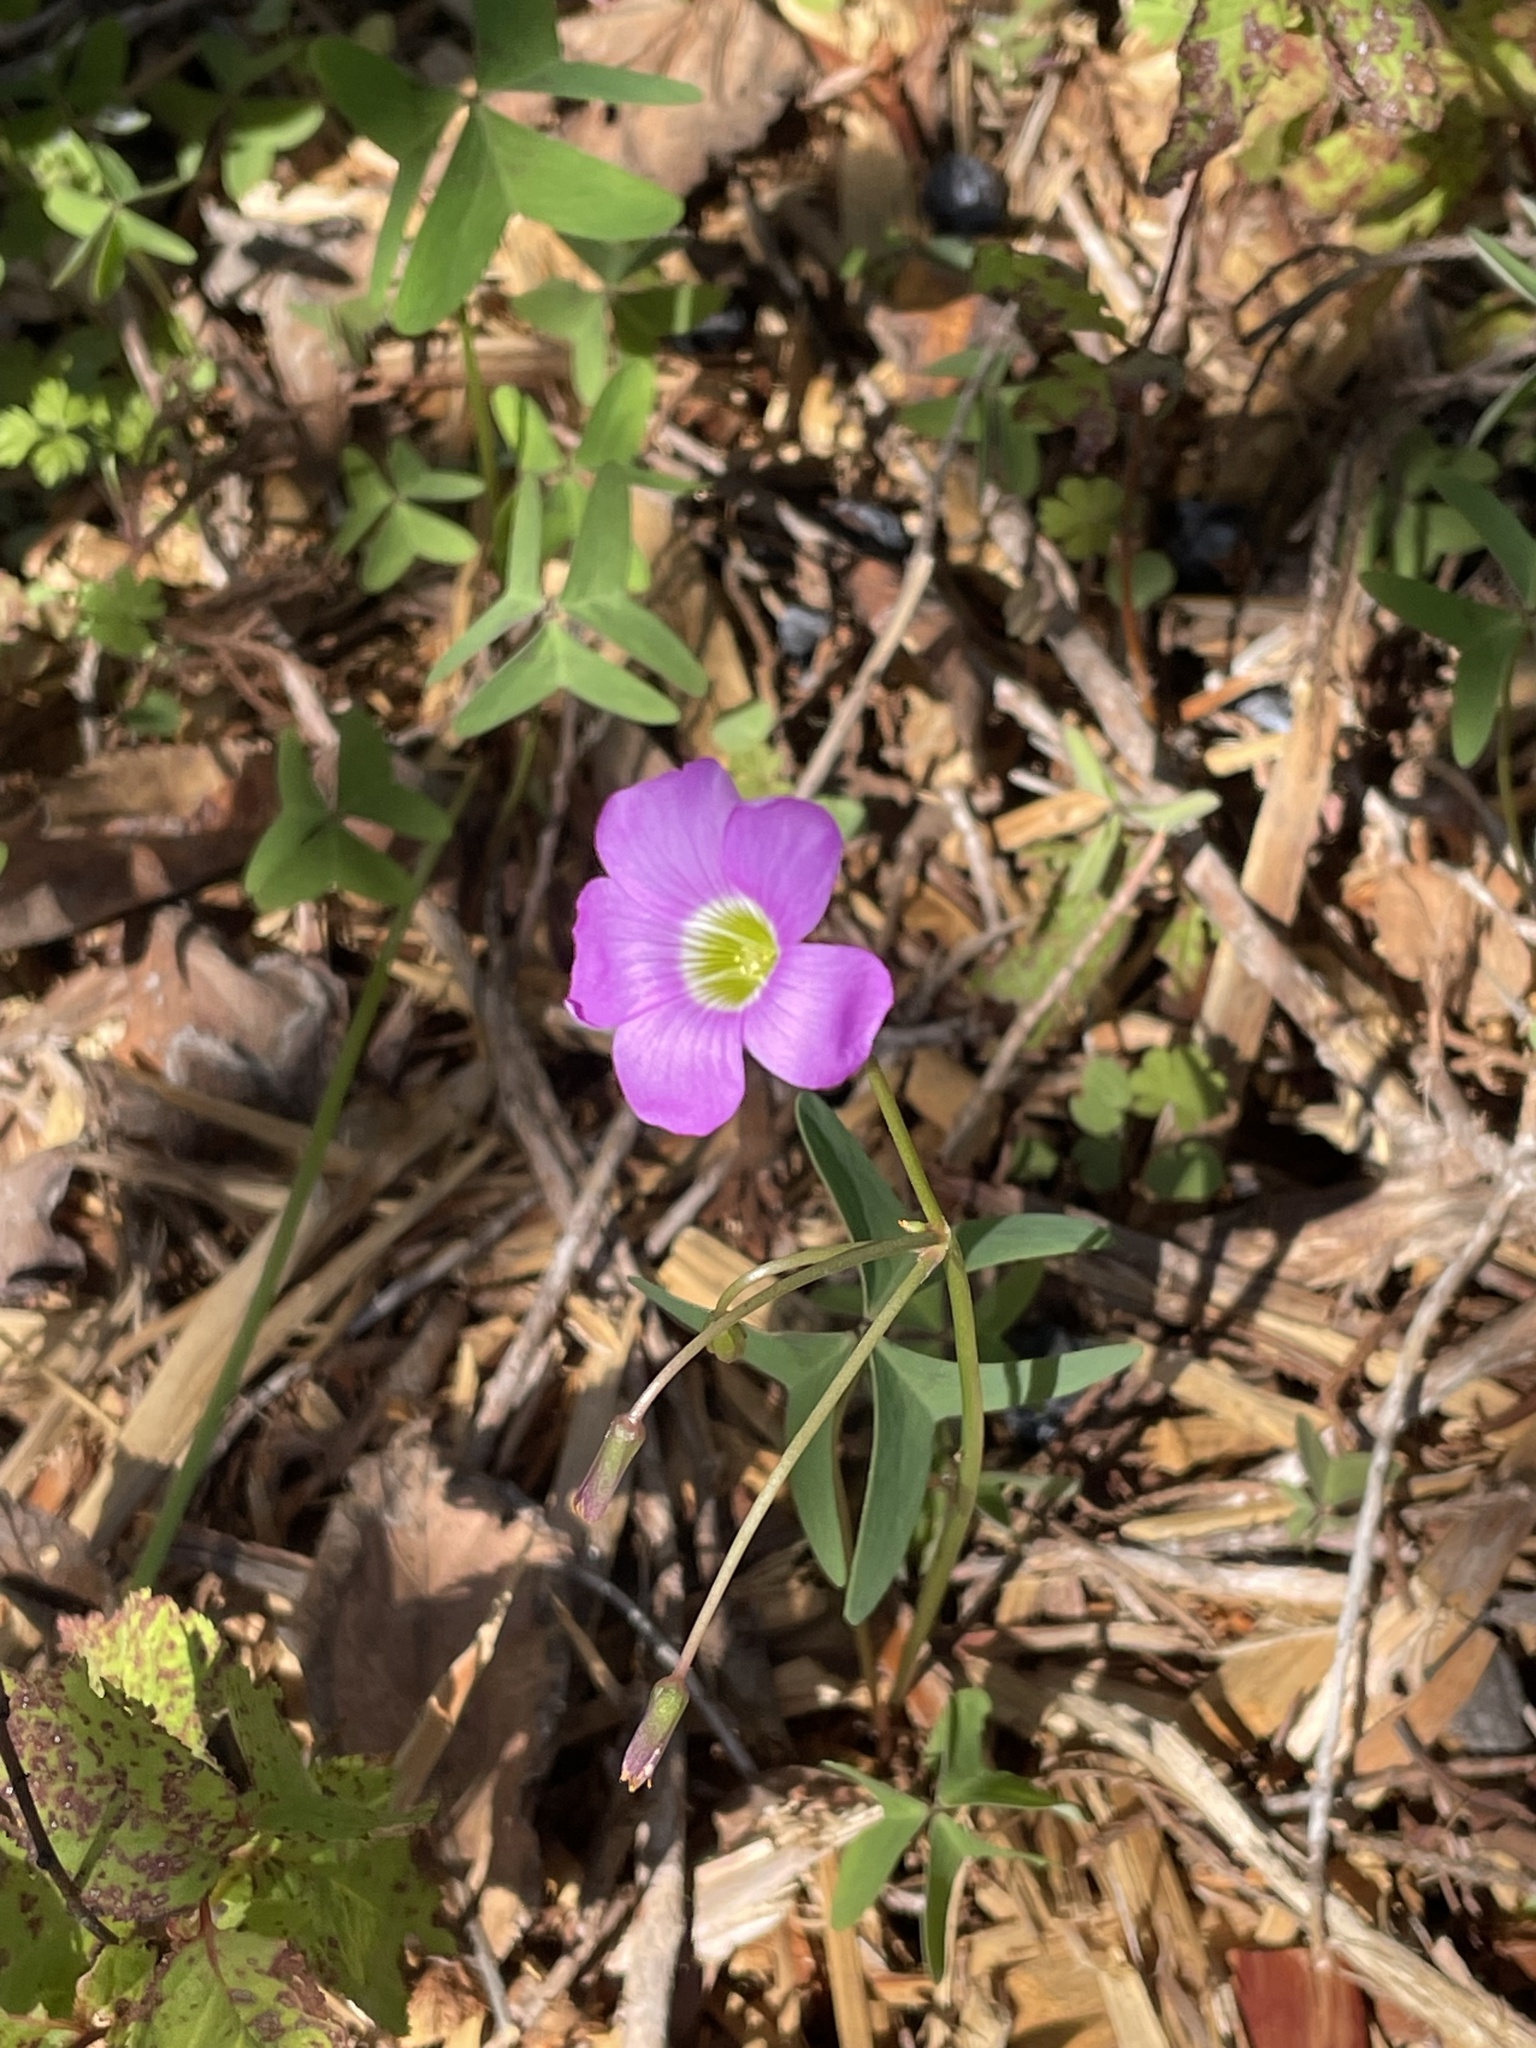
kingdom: Plantae
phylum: Tracheophyta
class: Magnoliopsida
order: Oxalidales
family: Oxalidaceae
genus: Oxalis
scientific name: Oxalis drummondii
